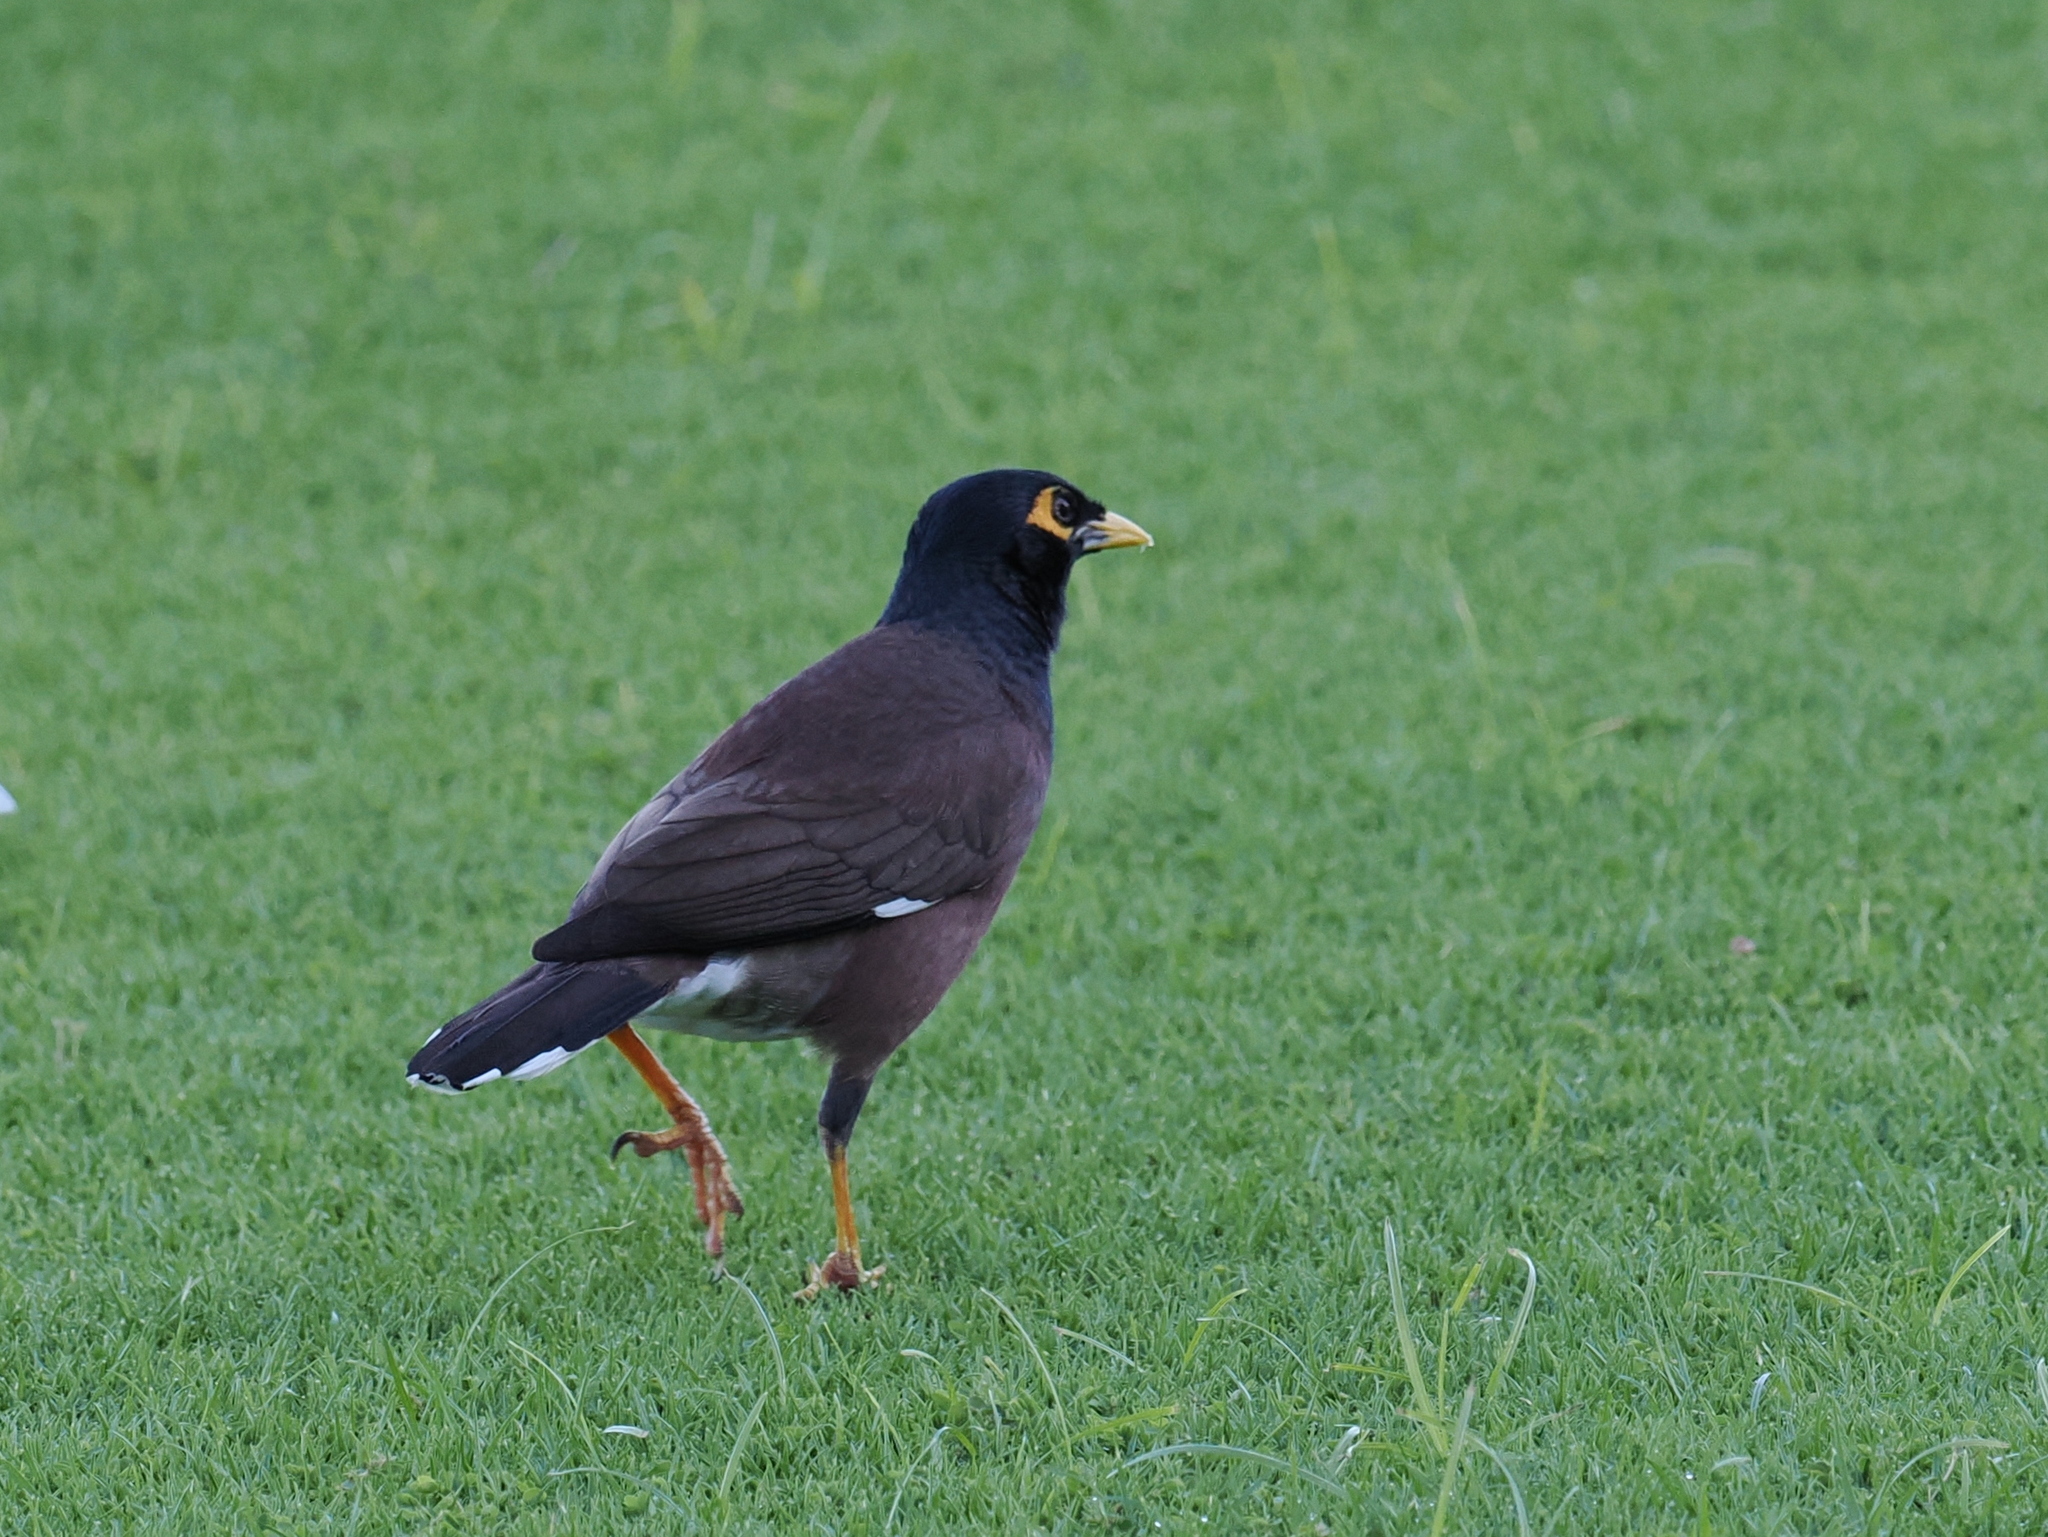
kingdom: Animalia
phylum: Chordata
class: Aves
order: Passeriformes
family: Sturnidae
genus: Acridotheres
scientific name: Acridotheres tristis
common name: Common myna
